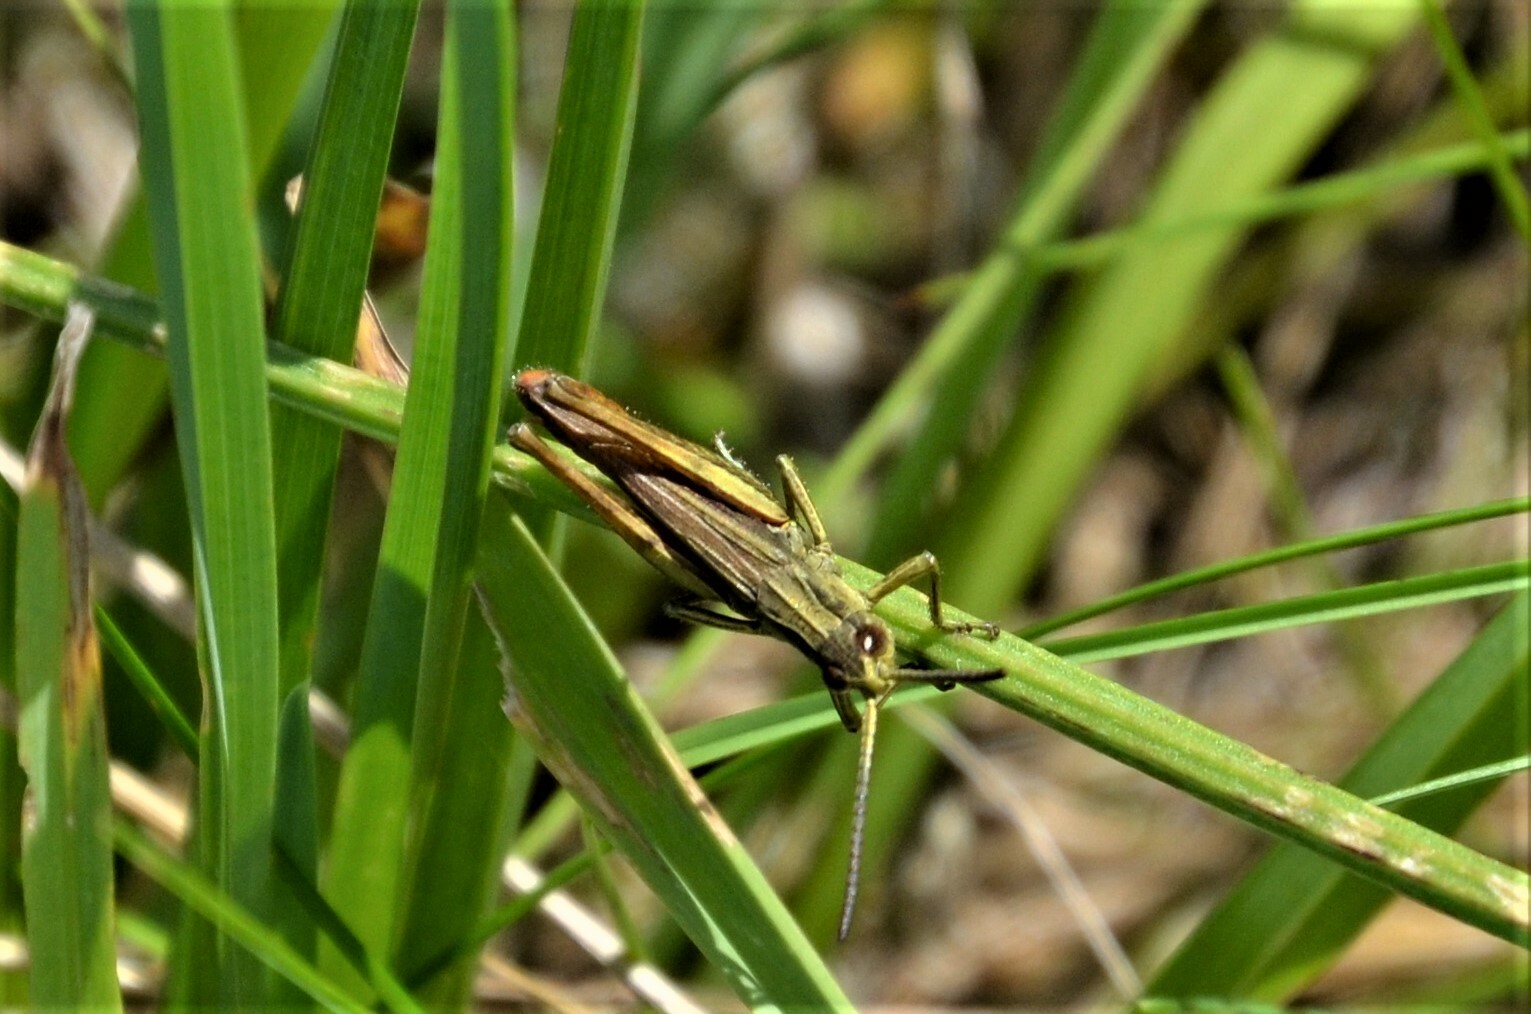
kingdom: Animalia
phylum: Arthropoda
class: Insecta
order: Orthoptera
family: Acrididae
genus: Chorthippus
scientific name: Chorthippus dorsatus
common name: Steppe grasshopper
